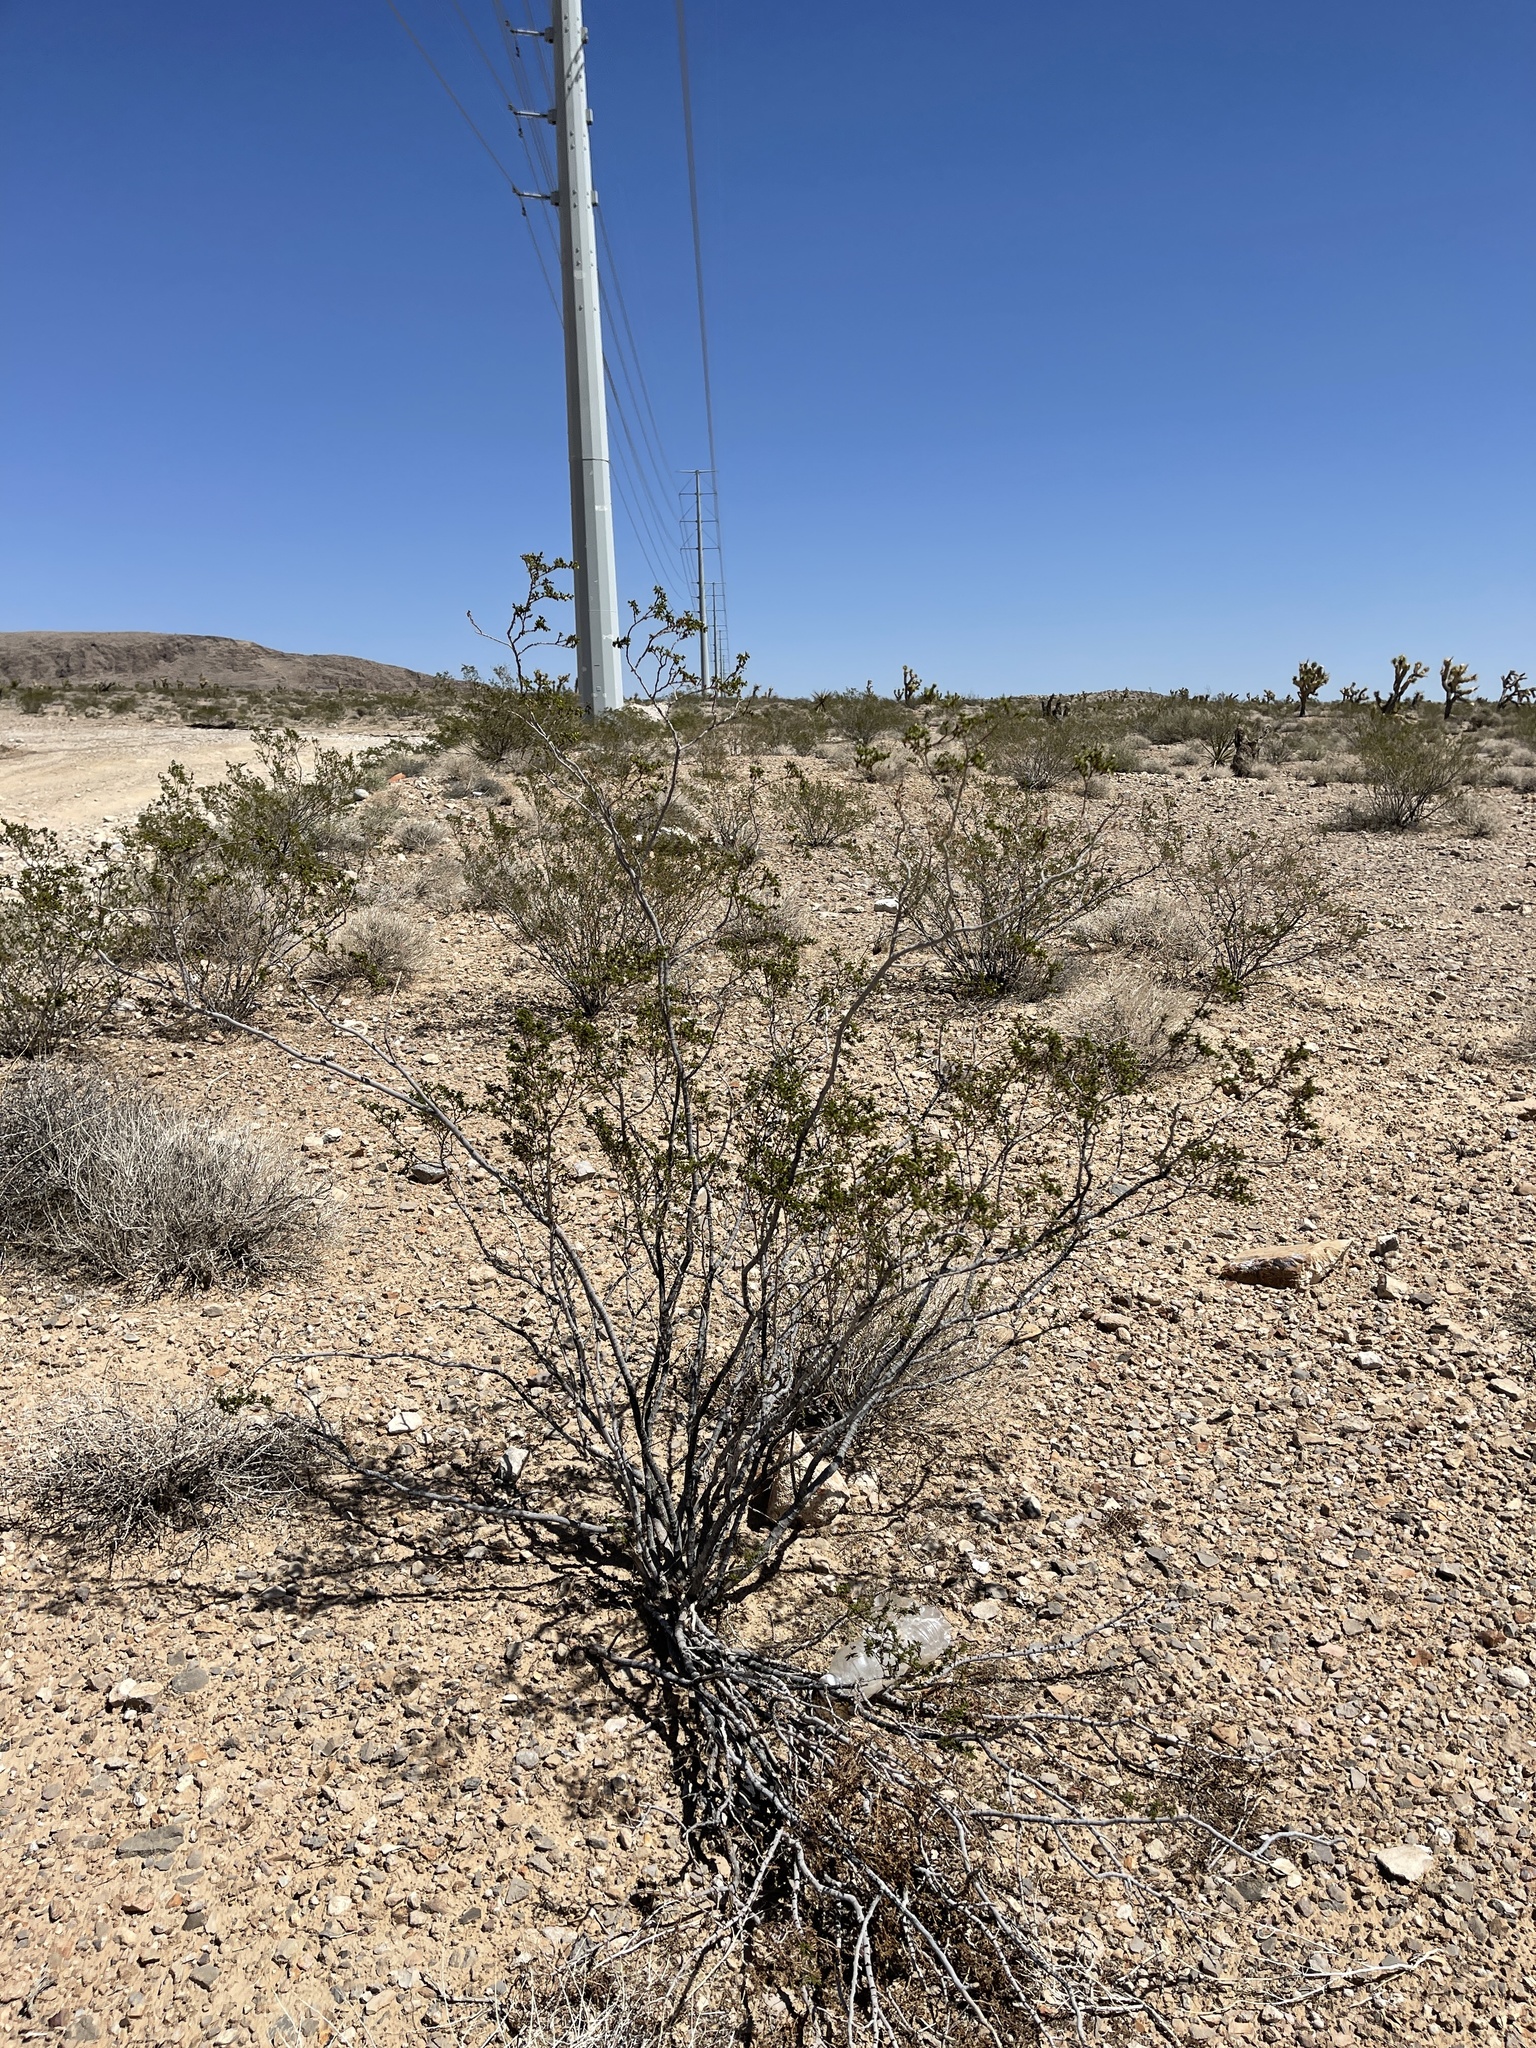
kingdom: Plantae
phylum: Tracheophyta
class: Magnoliopsida
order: Zygophyllales
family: Zygophyllaceae
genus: Larrea
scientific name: Larrea tridentata
